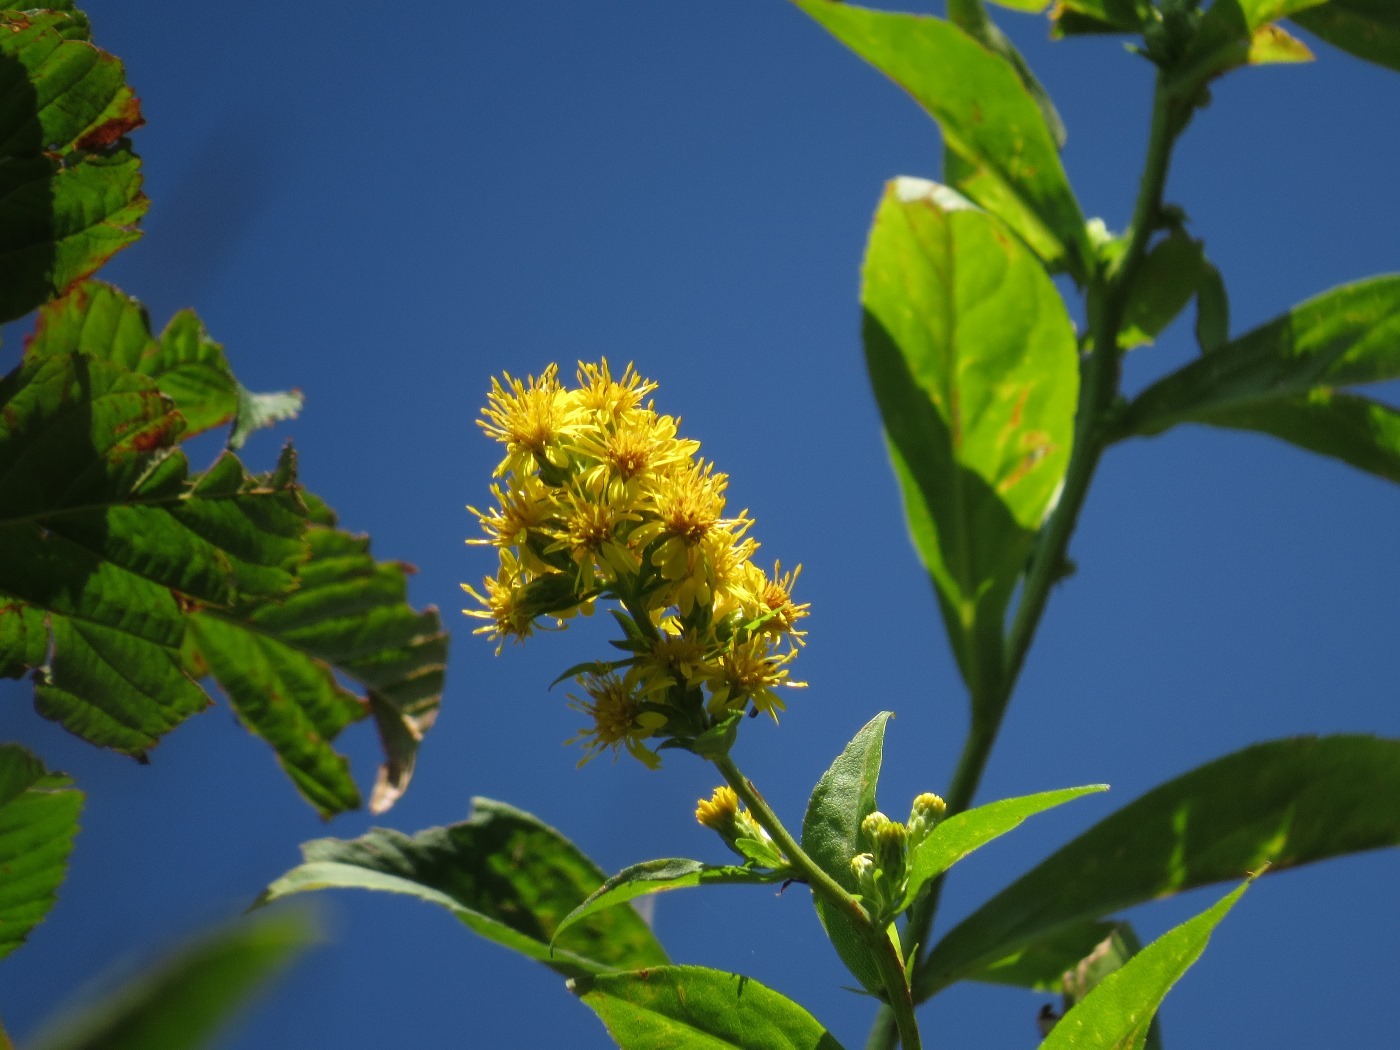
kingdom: Plantae
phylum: Tracheophyta
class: Magnoliopsida
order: Asterales
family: Asteraceae
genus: Solidago
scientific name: Solidago glomerata
